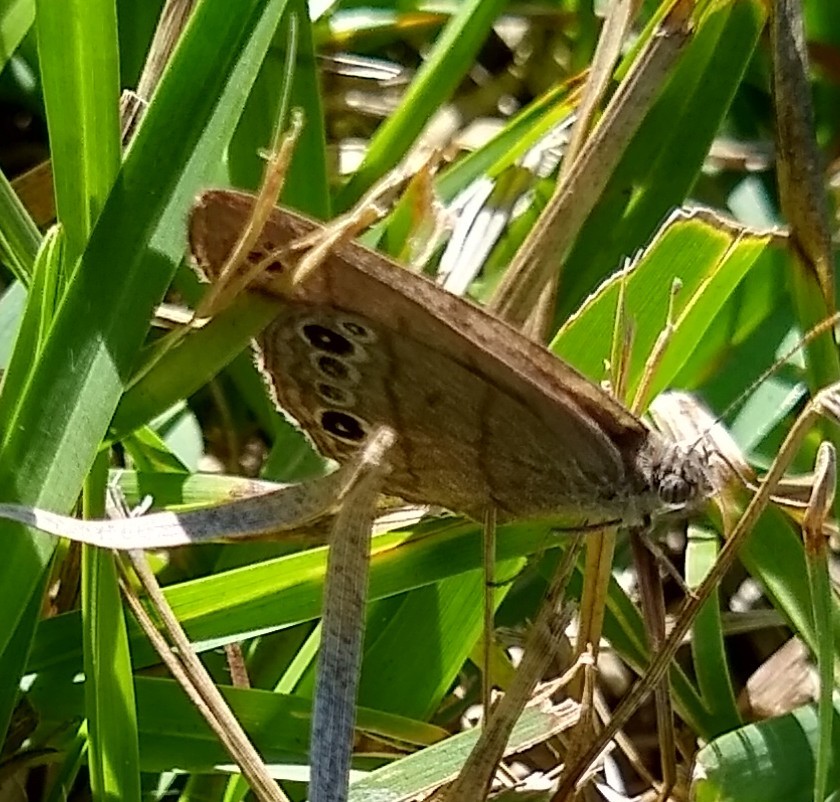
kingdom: Animalia
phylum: Arthropoda
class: Insecta
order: Lepidoptera
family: Nymphalidae
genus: Hermeuptychia
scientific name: Hermeuptychia hermes
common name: Hermes satyr
